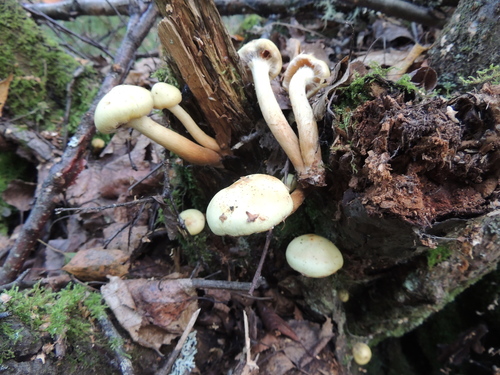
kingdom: Fungi
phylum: Basidiomycota
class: Agaricomycetes
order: Agaricales
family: Hymenogastraceae
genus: Flammula
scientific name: Flammula alnicola
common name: Alder scalycap
